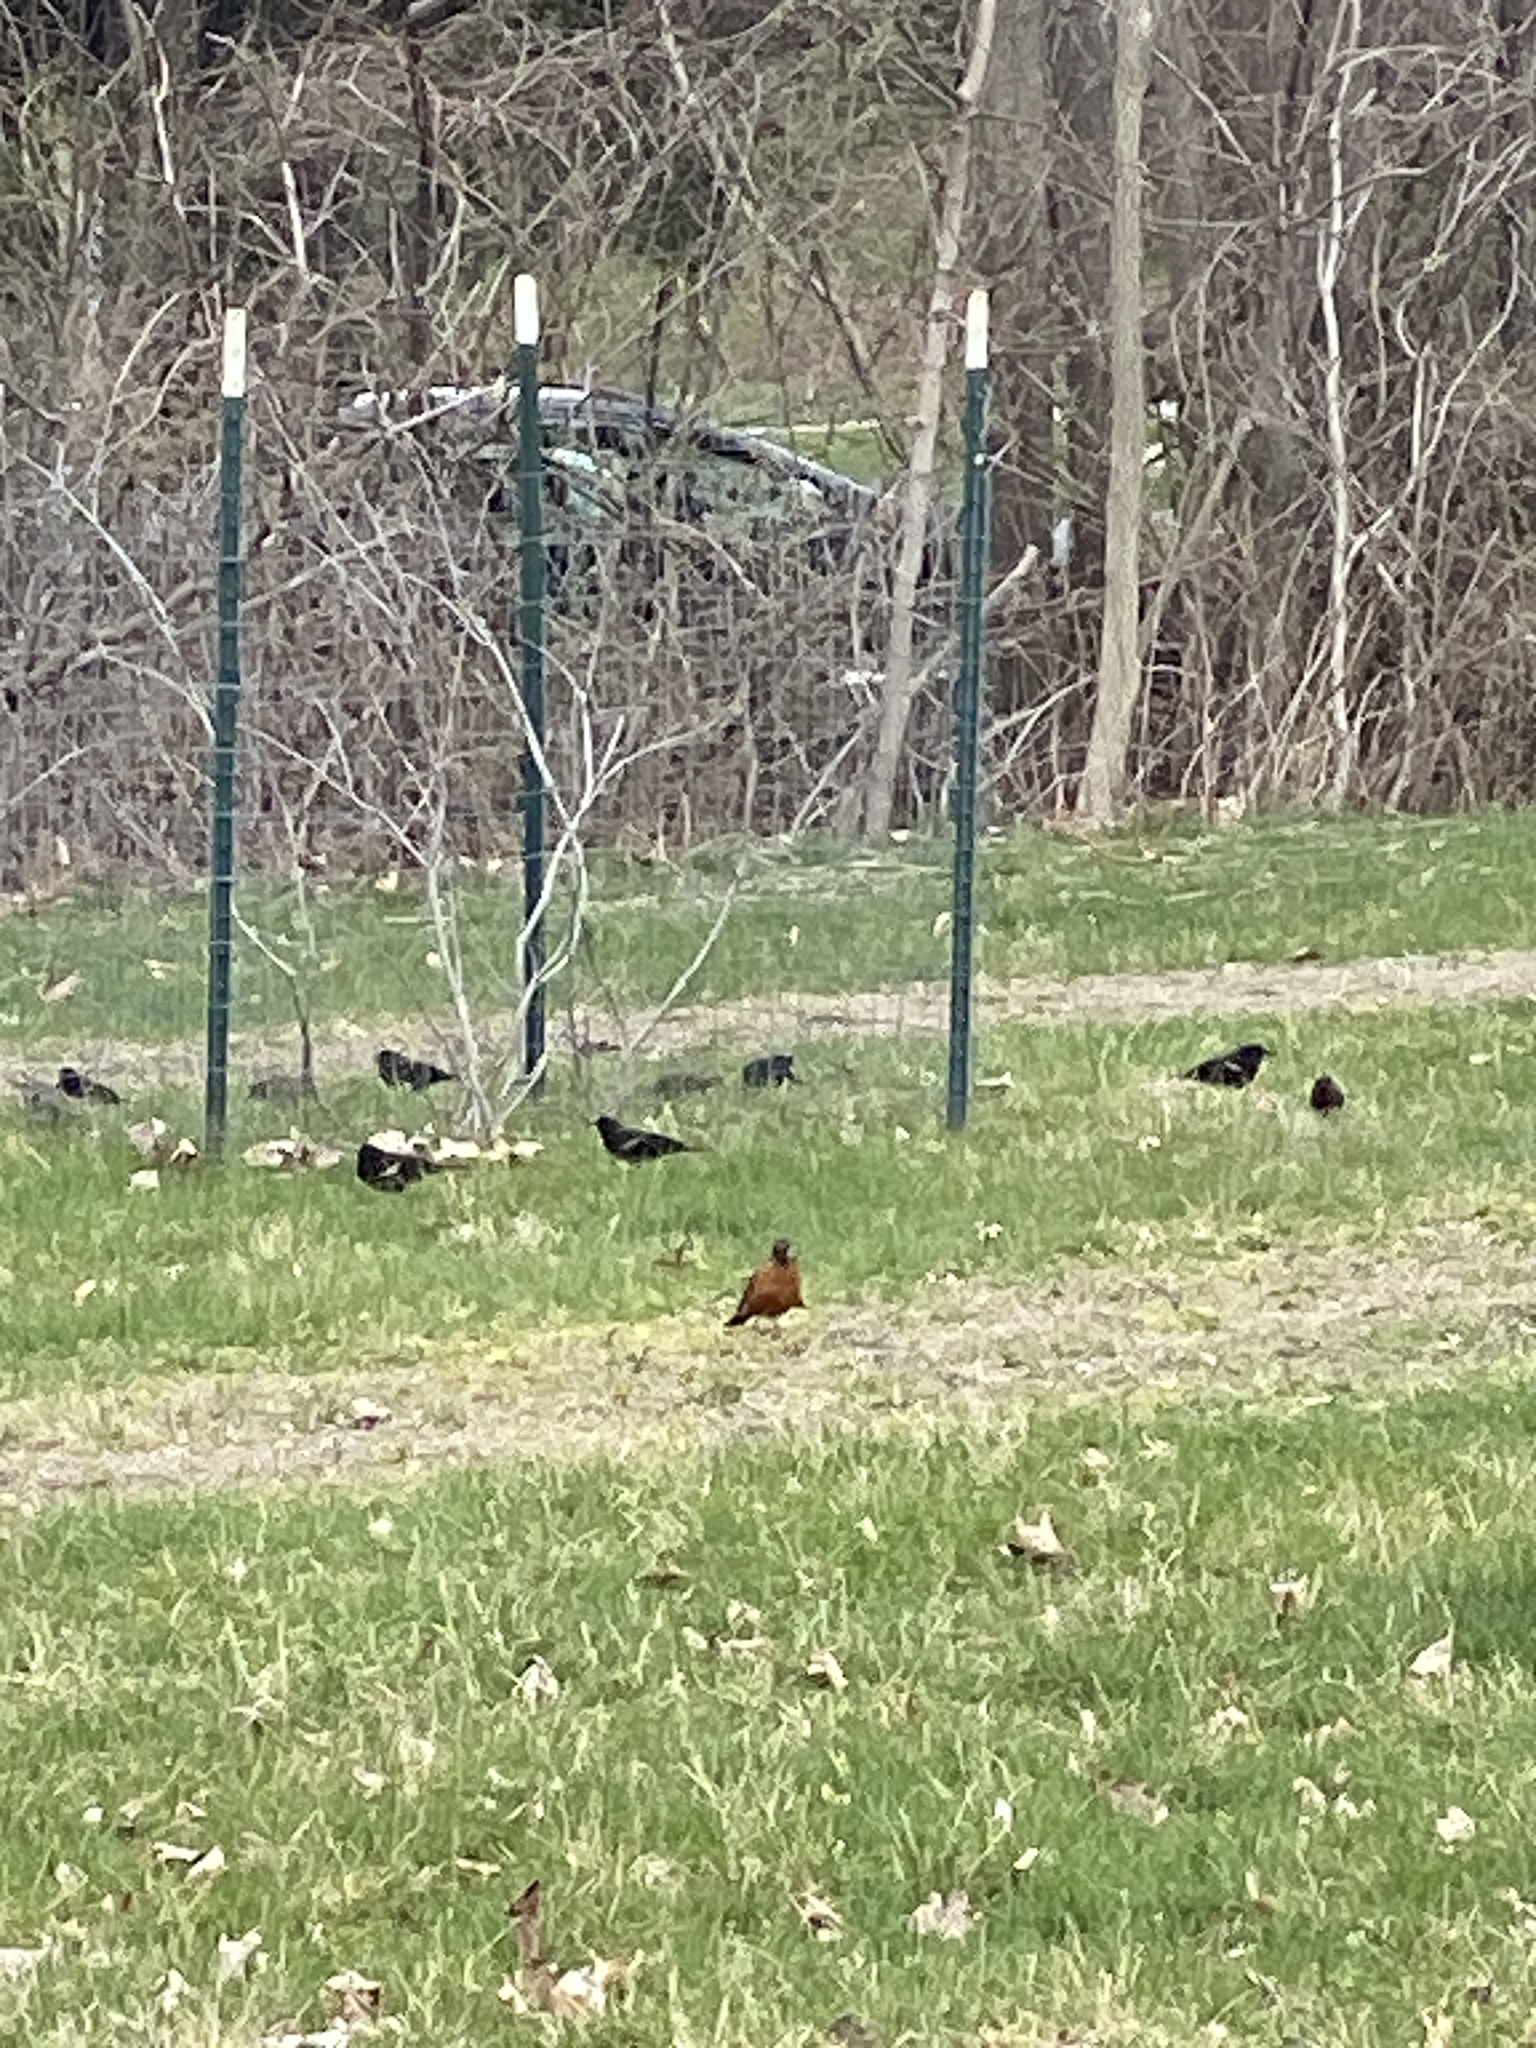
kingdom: Animalia
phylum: Chordata
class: Aves
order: Passeriformes
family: Turdidae
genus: Turdus
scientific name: Turdus migratorius
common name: American robin
